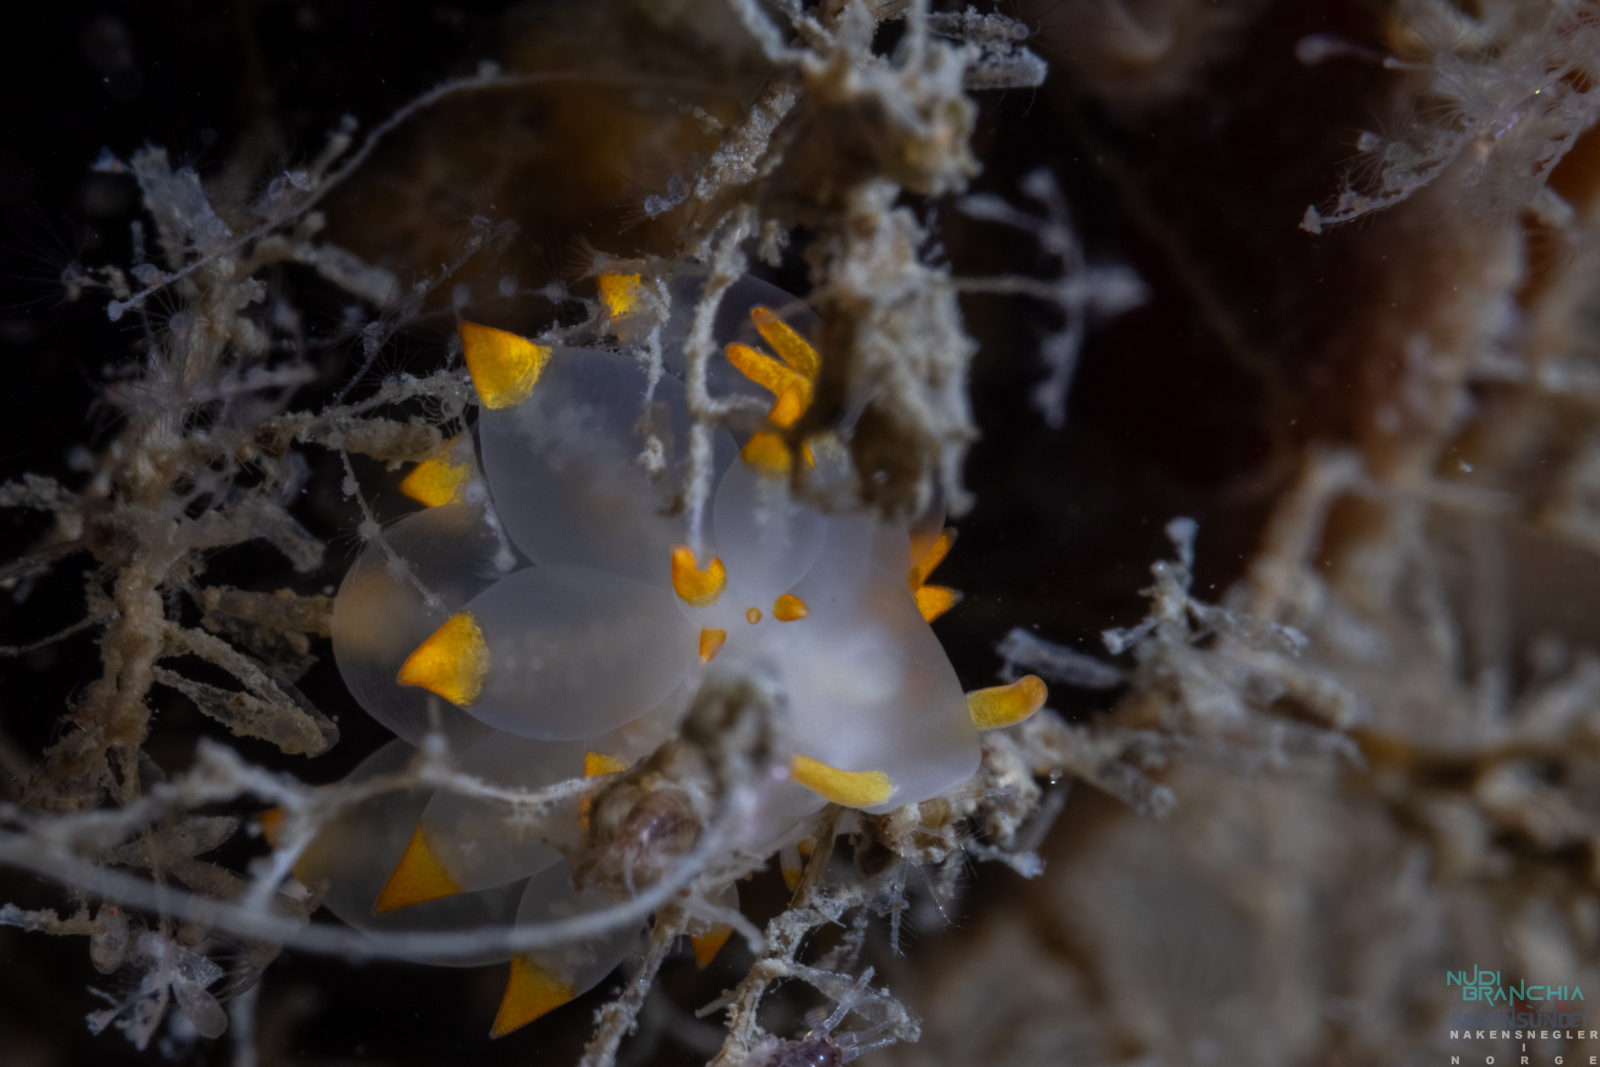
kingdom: Animalia
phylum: Mollusca
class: Gastropoda
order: Nudibranchia
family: Eubranchidae
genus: Amphorina
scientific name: Amphorina farrani
